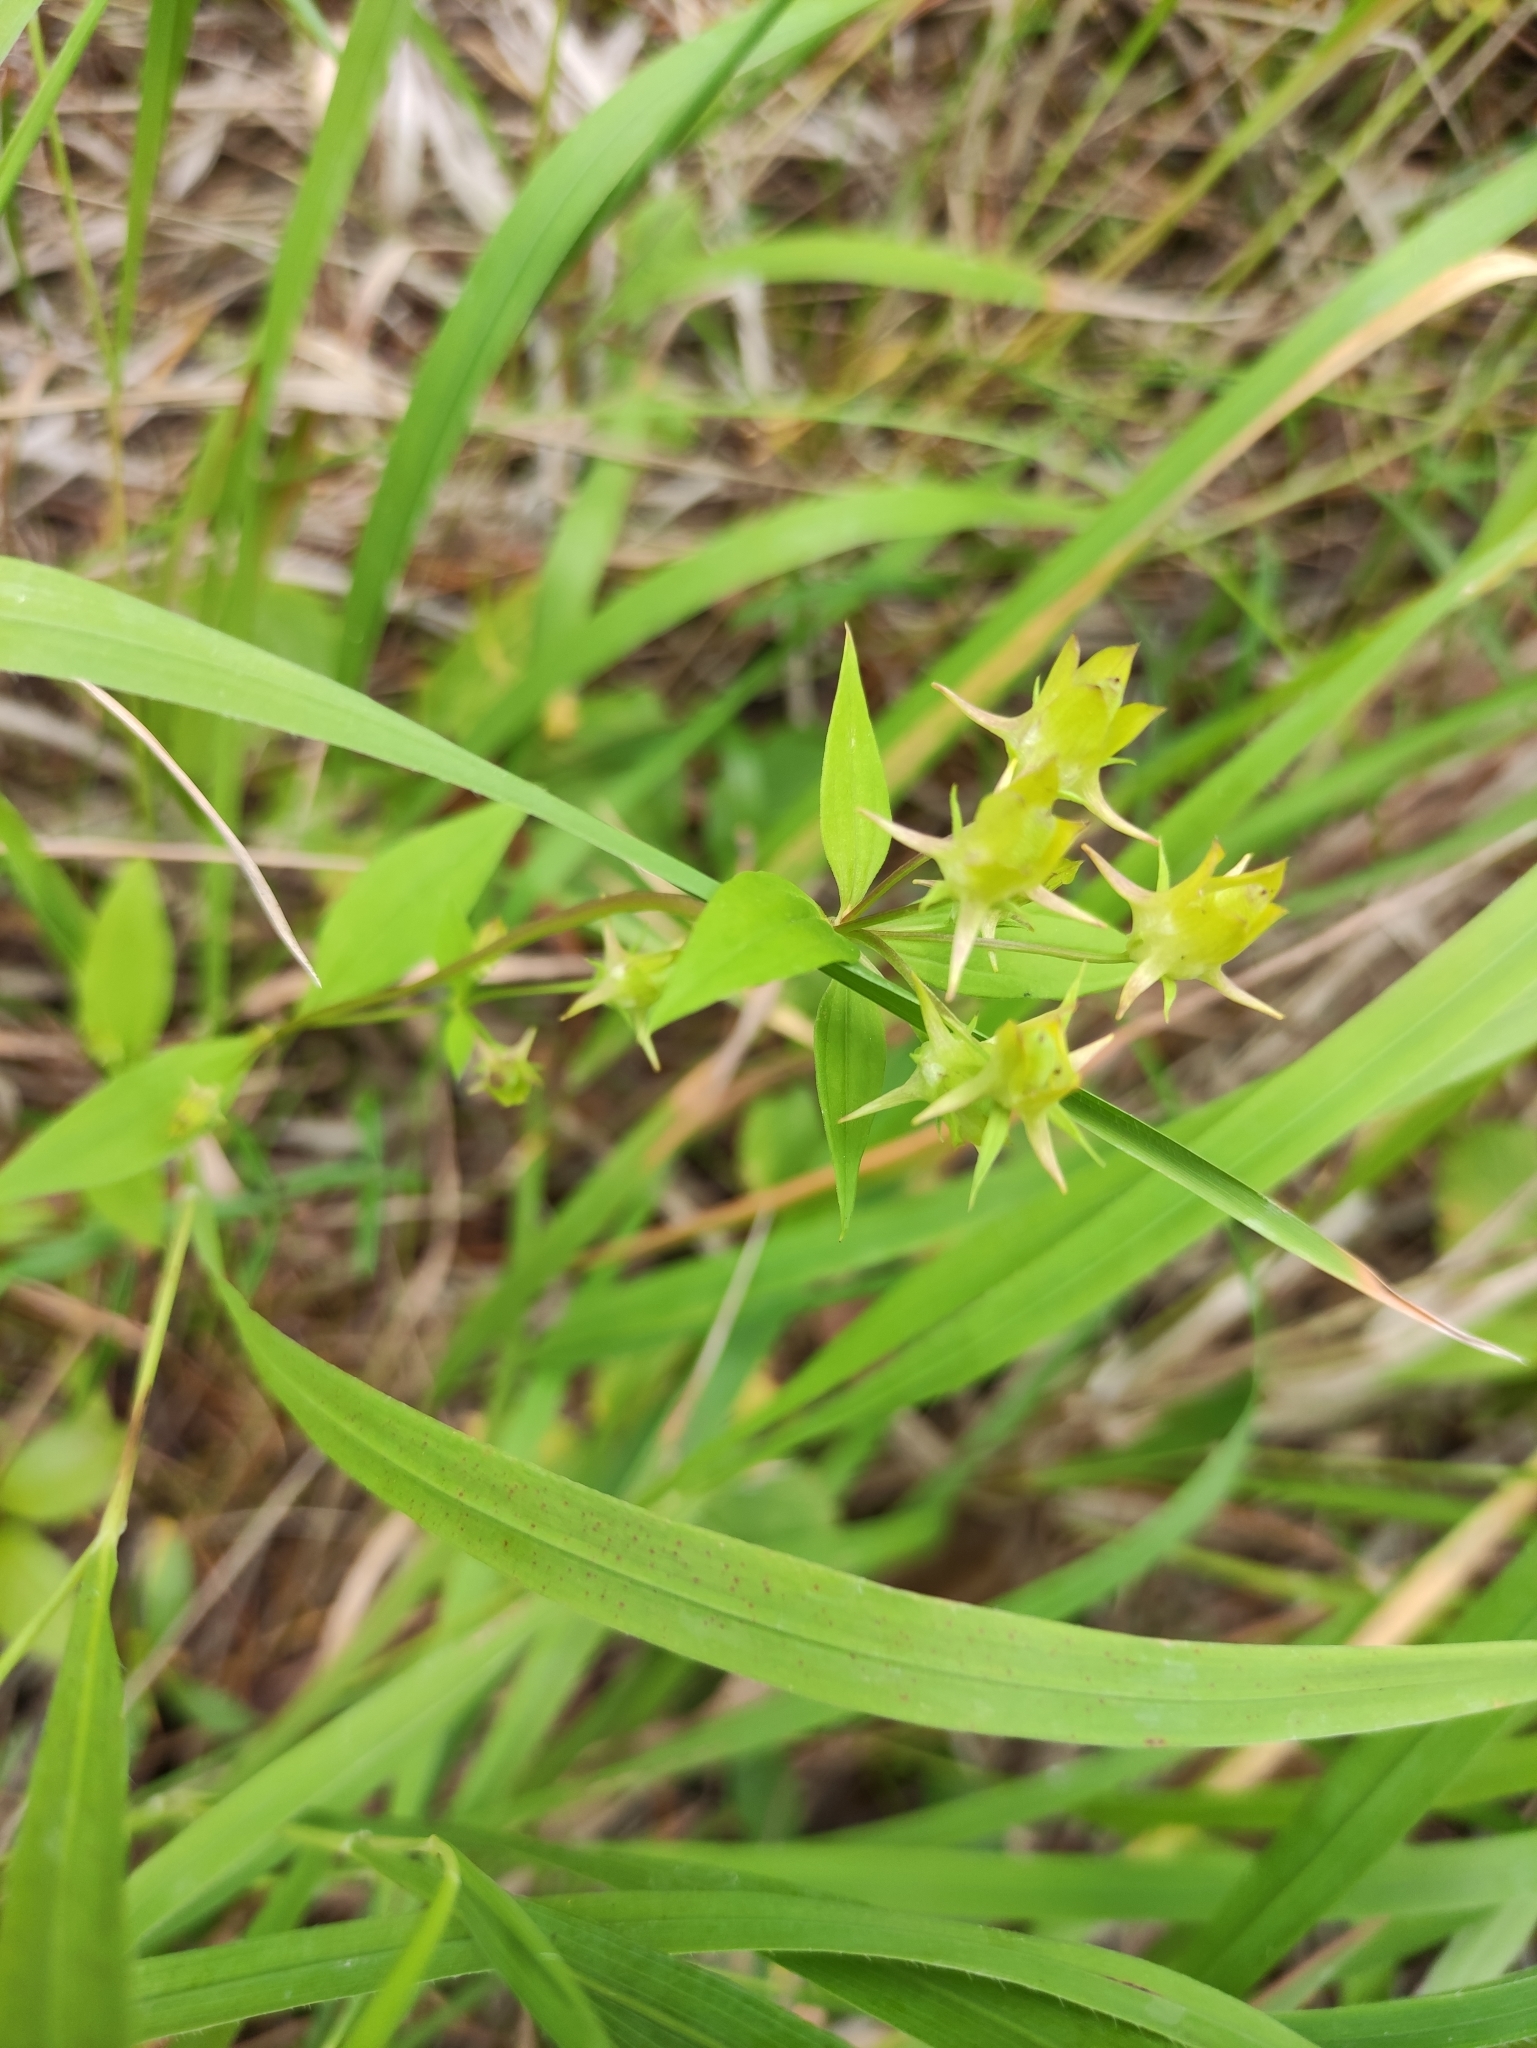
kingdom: Plantae
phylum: Tracheophyta
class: Magnoliopsida
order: Gentianales
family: Gentianaceae
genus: Halenia
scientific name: Halenia corniculata
